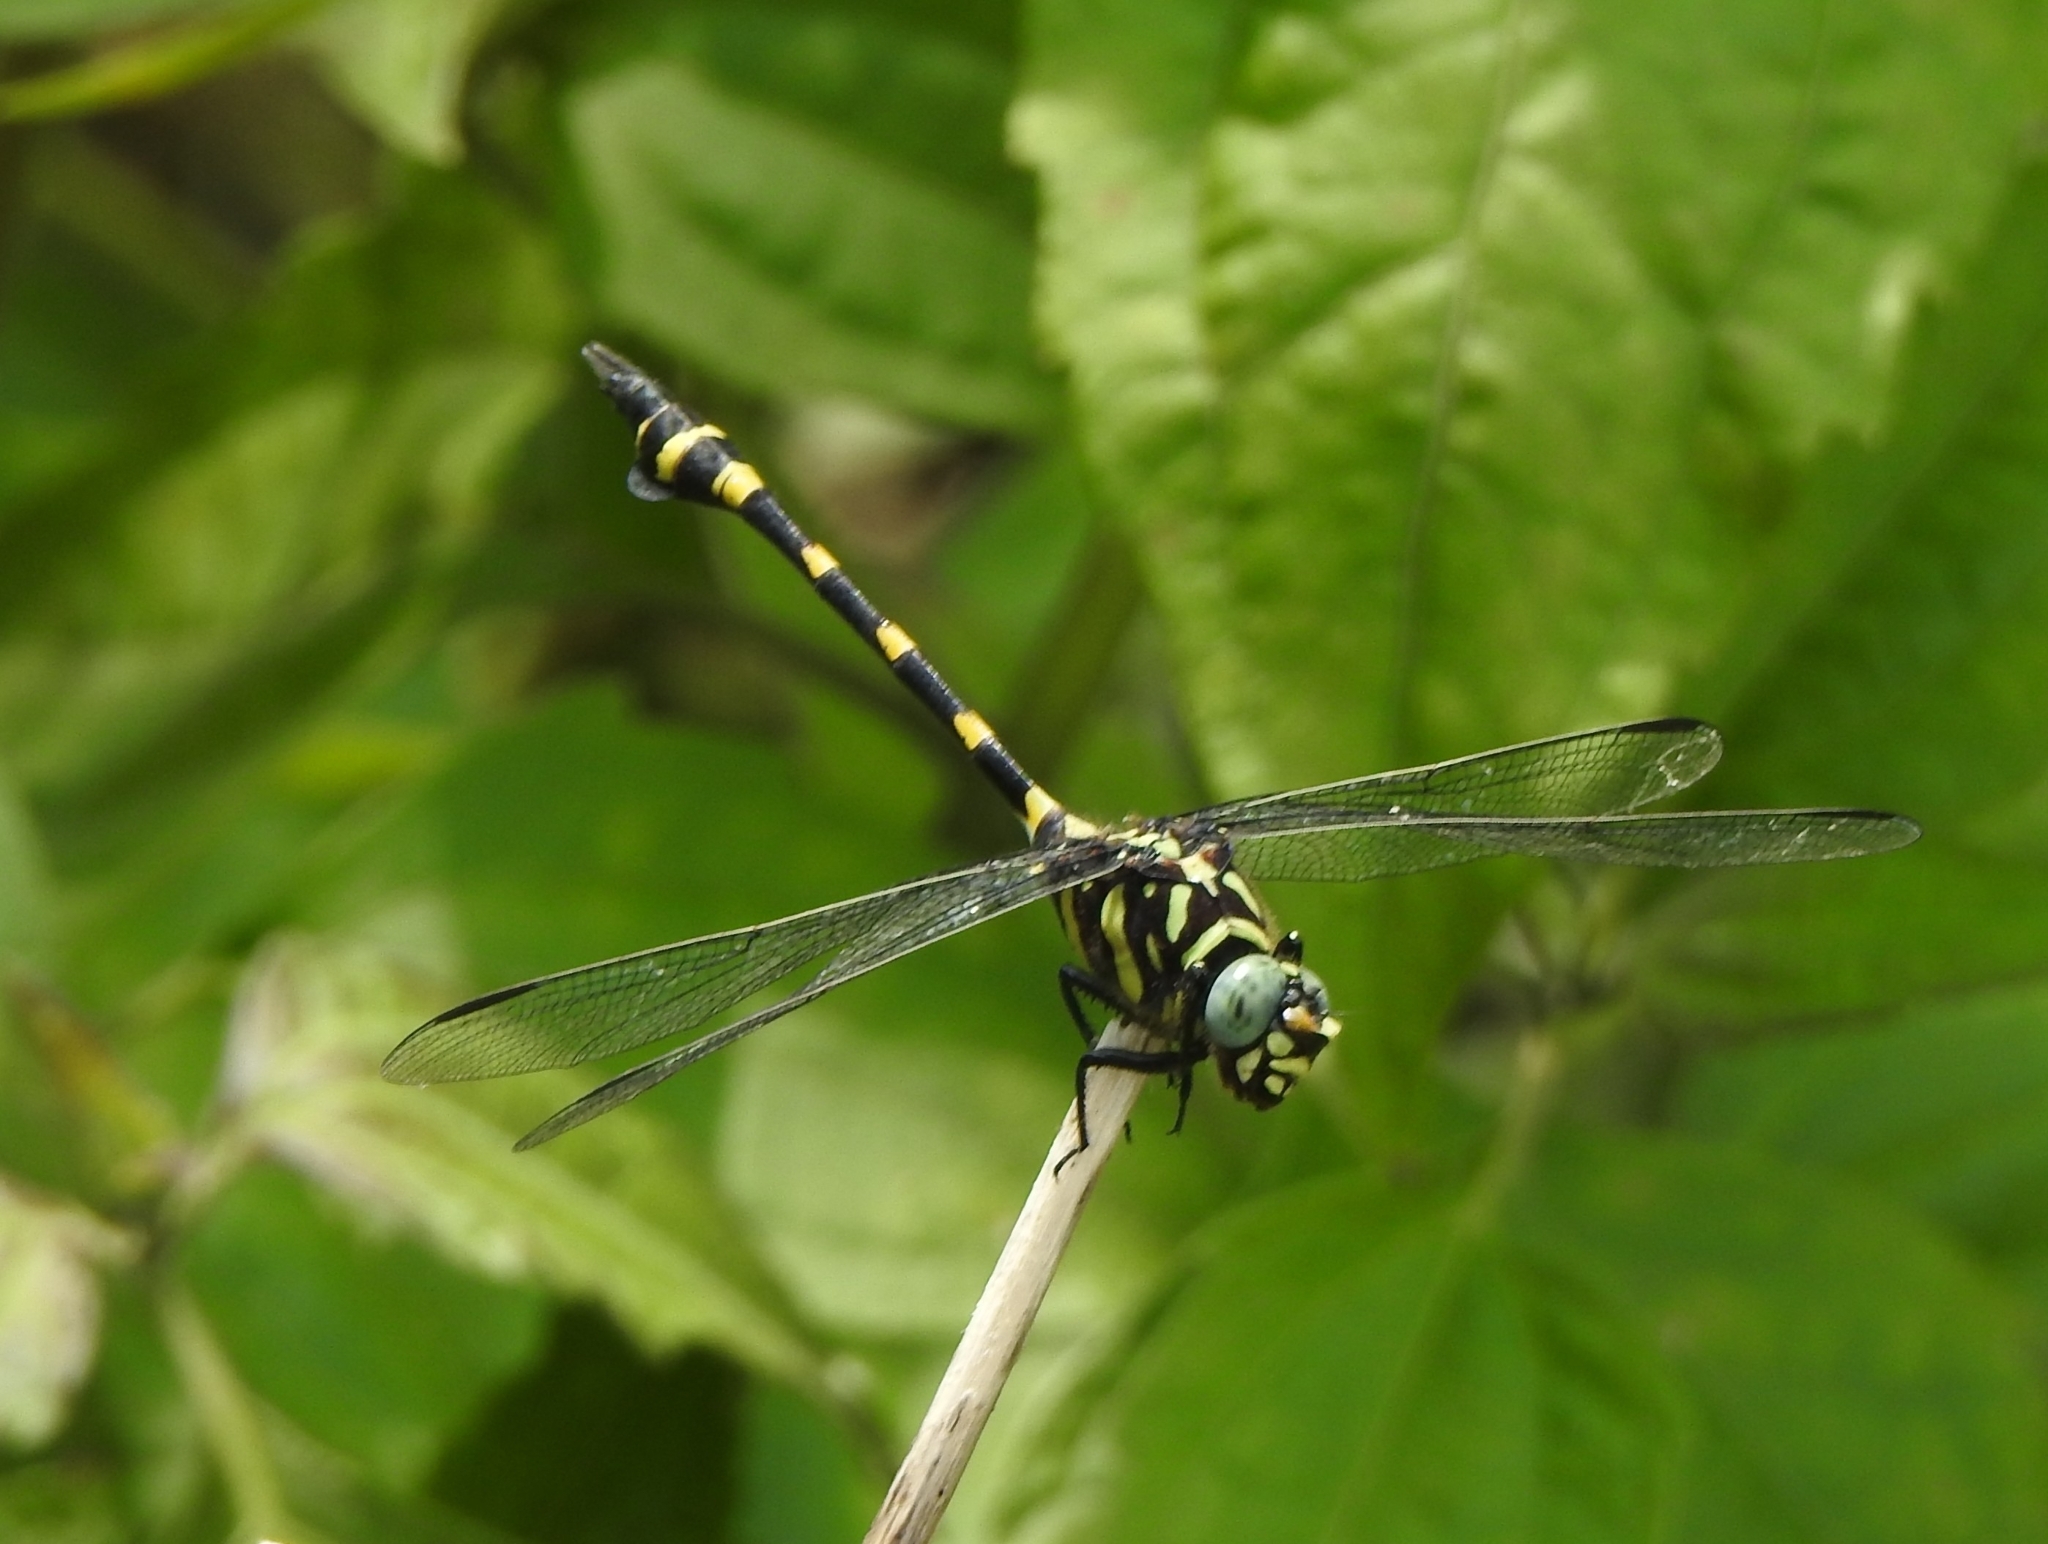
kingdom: Animalia
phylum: Arthropoda
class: Insecta
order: Odonata
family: Gomphidae
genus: Ictinogomphus
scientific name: Ictinogomphus rapax
